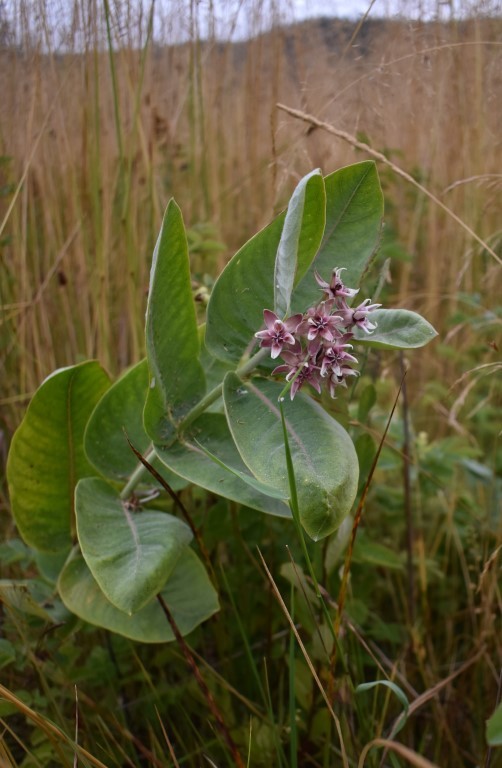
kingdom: Plantae
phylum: Tracheophyta
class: Magnoliopsida
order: Gentianales
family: Apocynaceae
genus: Asclepias
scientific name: Asclepias speciosa
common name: Showy milkweed
